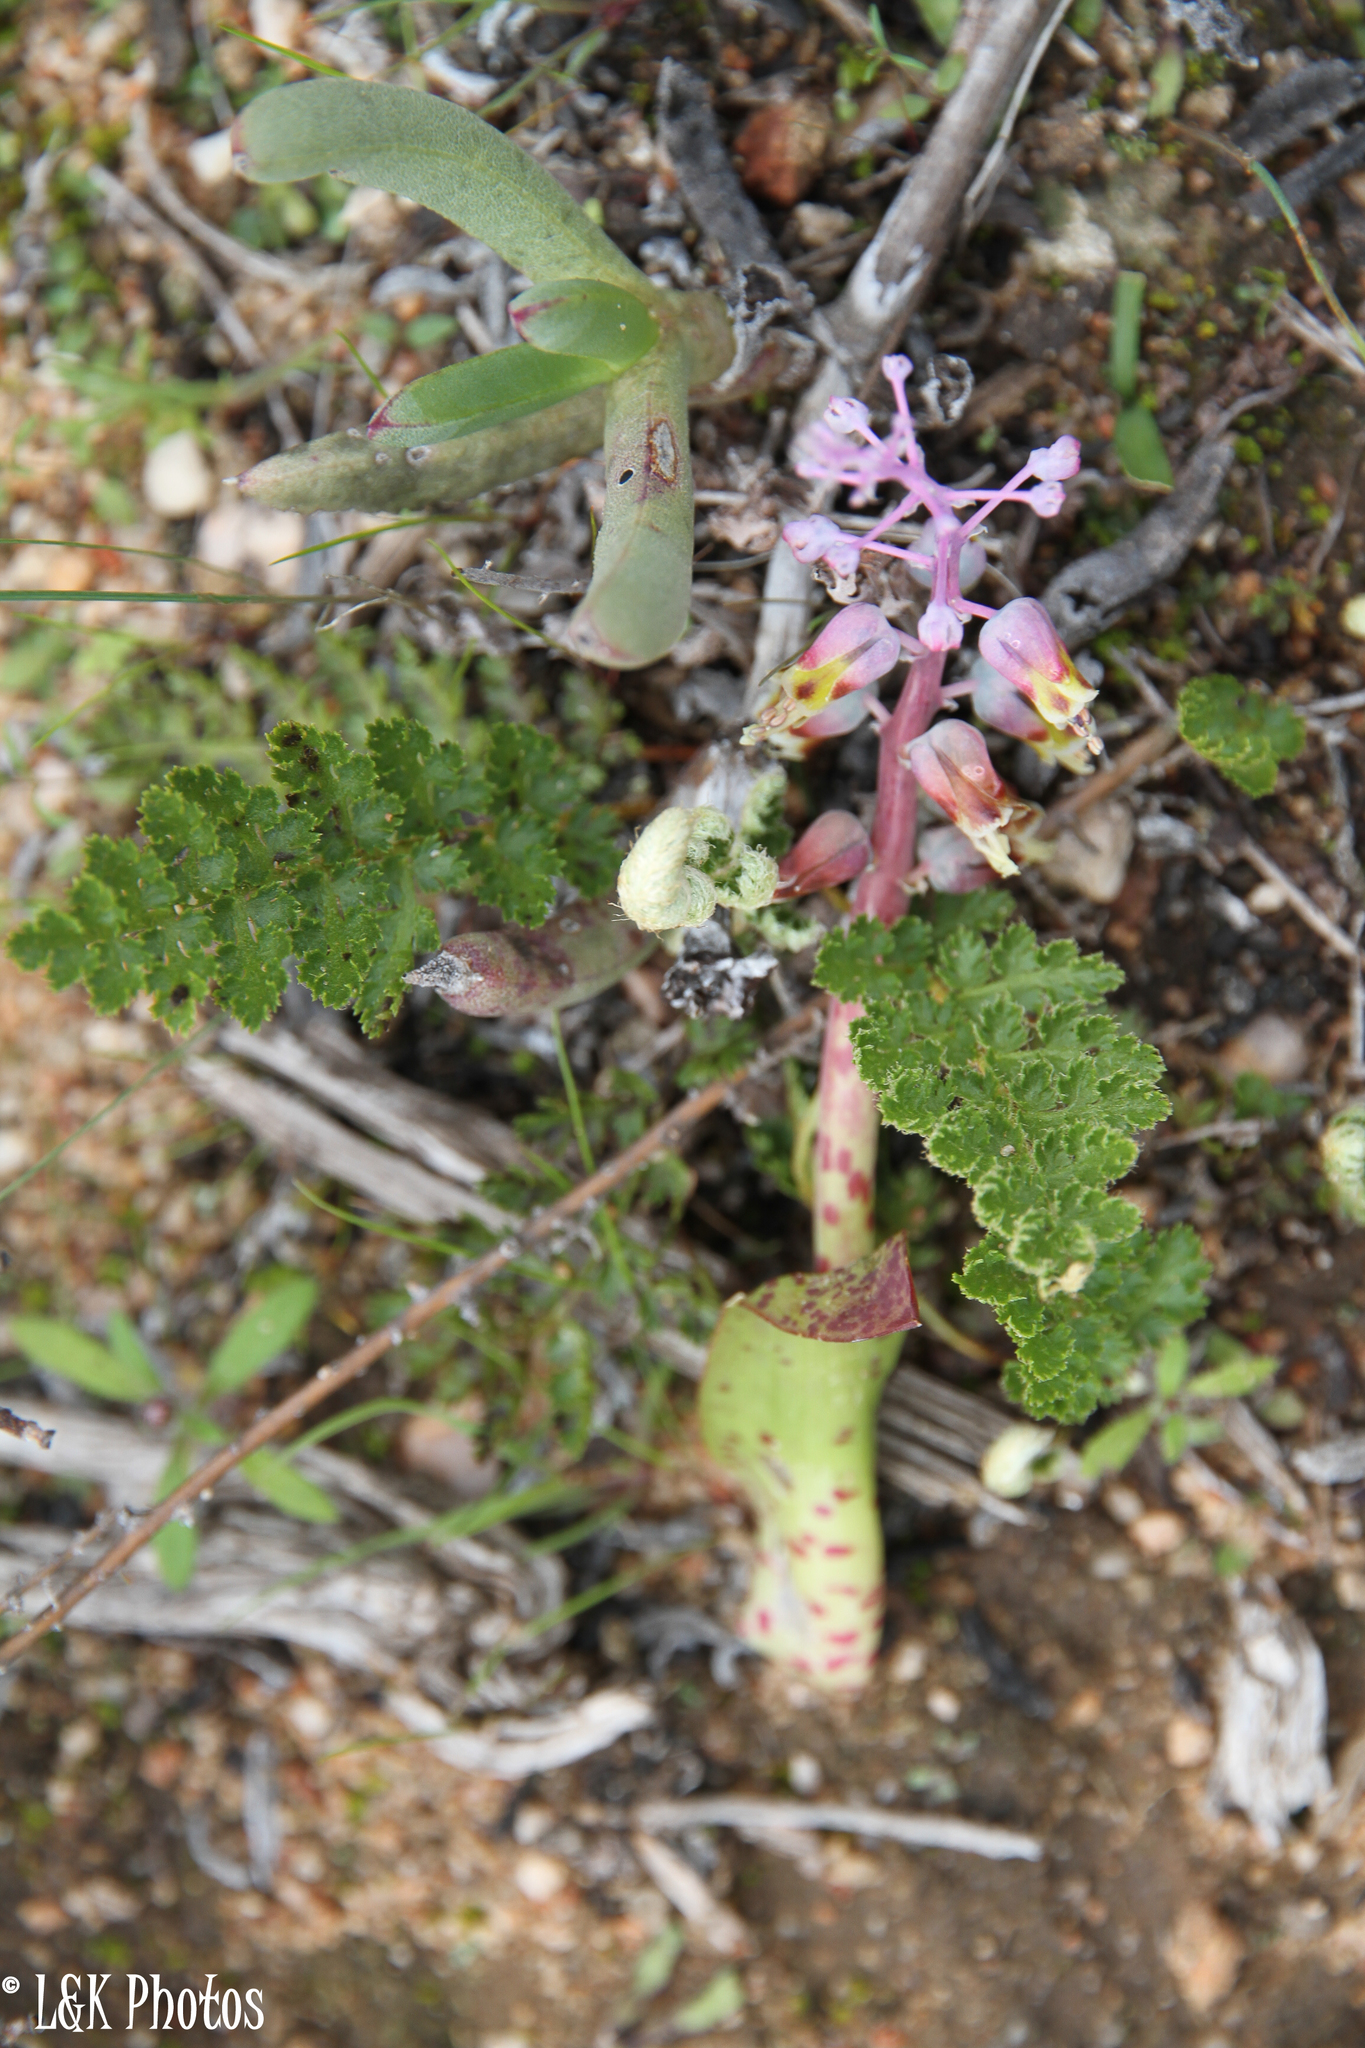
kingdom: Plantae
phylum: Tracheophyta
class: Liliopsida
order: Asparagales
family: Asparagaceae
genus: Lachenalia
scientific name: Lachenalia mutabilis
